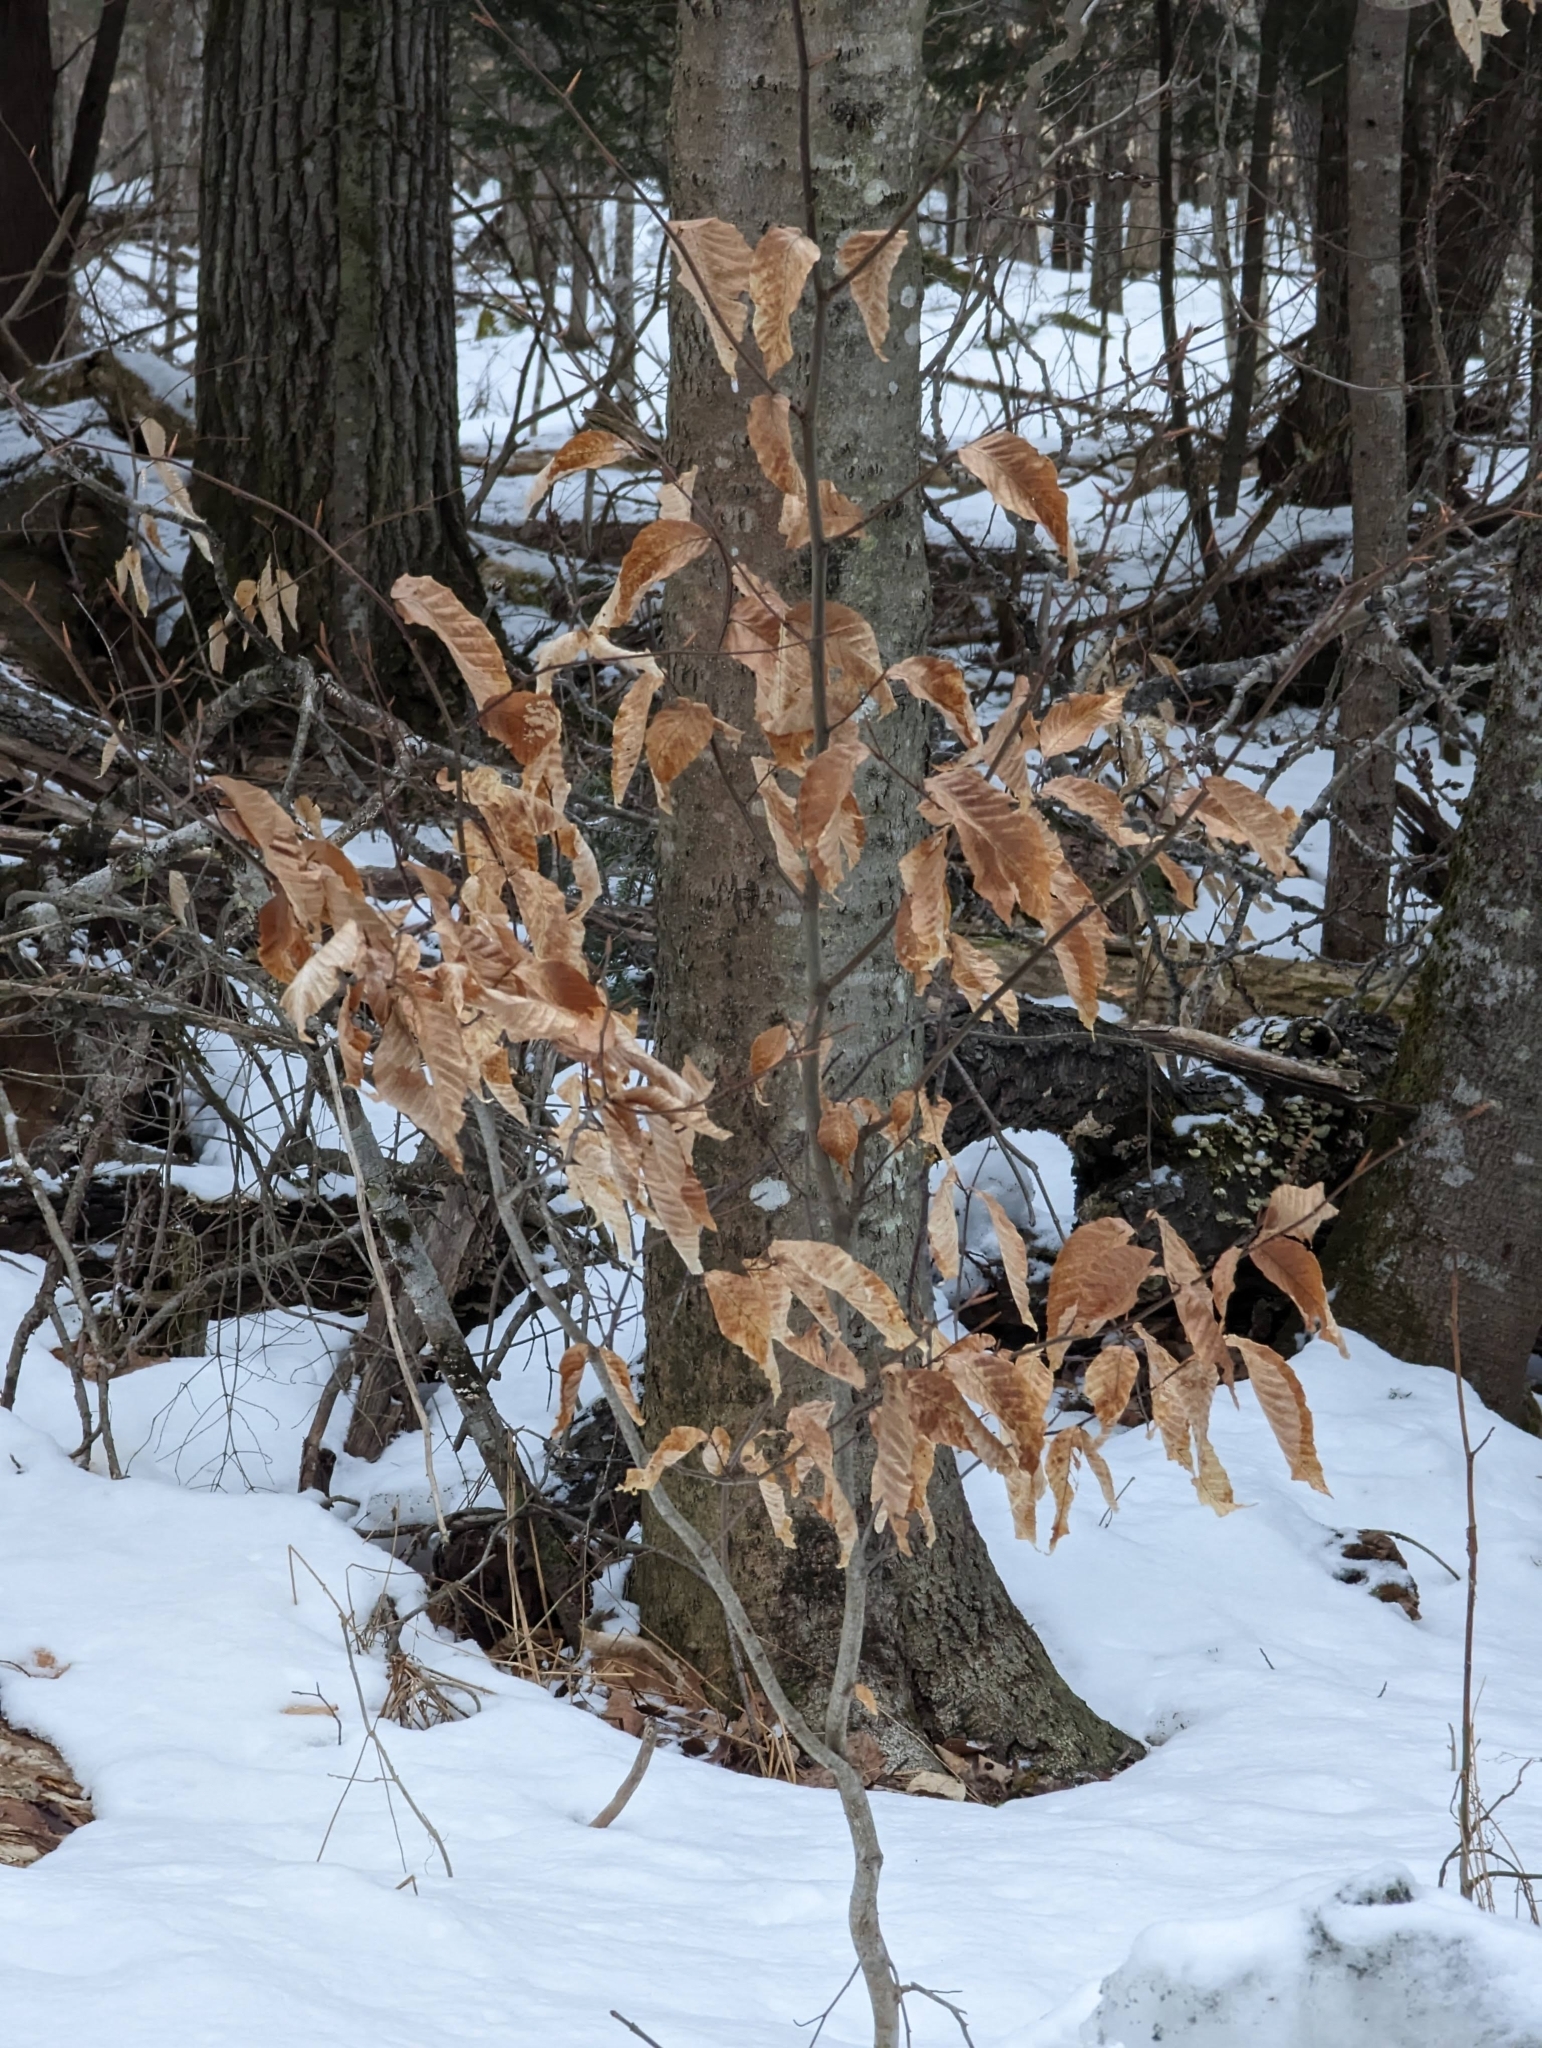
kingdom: Plantae
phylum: Tracheophyta
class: Magnoliopsida
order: Fagales
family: Fagaceae
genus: Fagus
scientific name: Fagus grandifolia
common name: American beech
